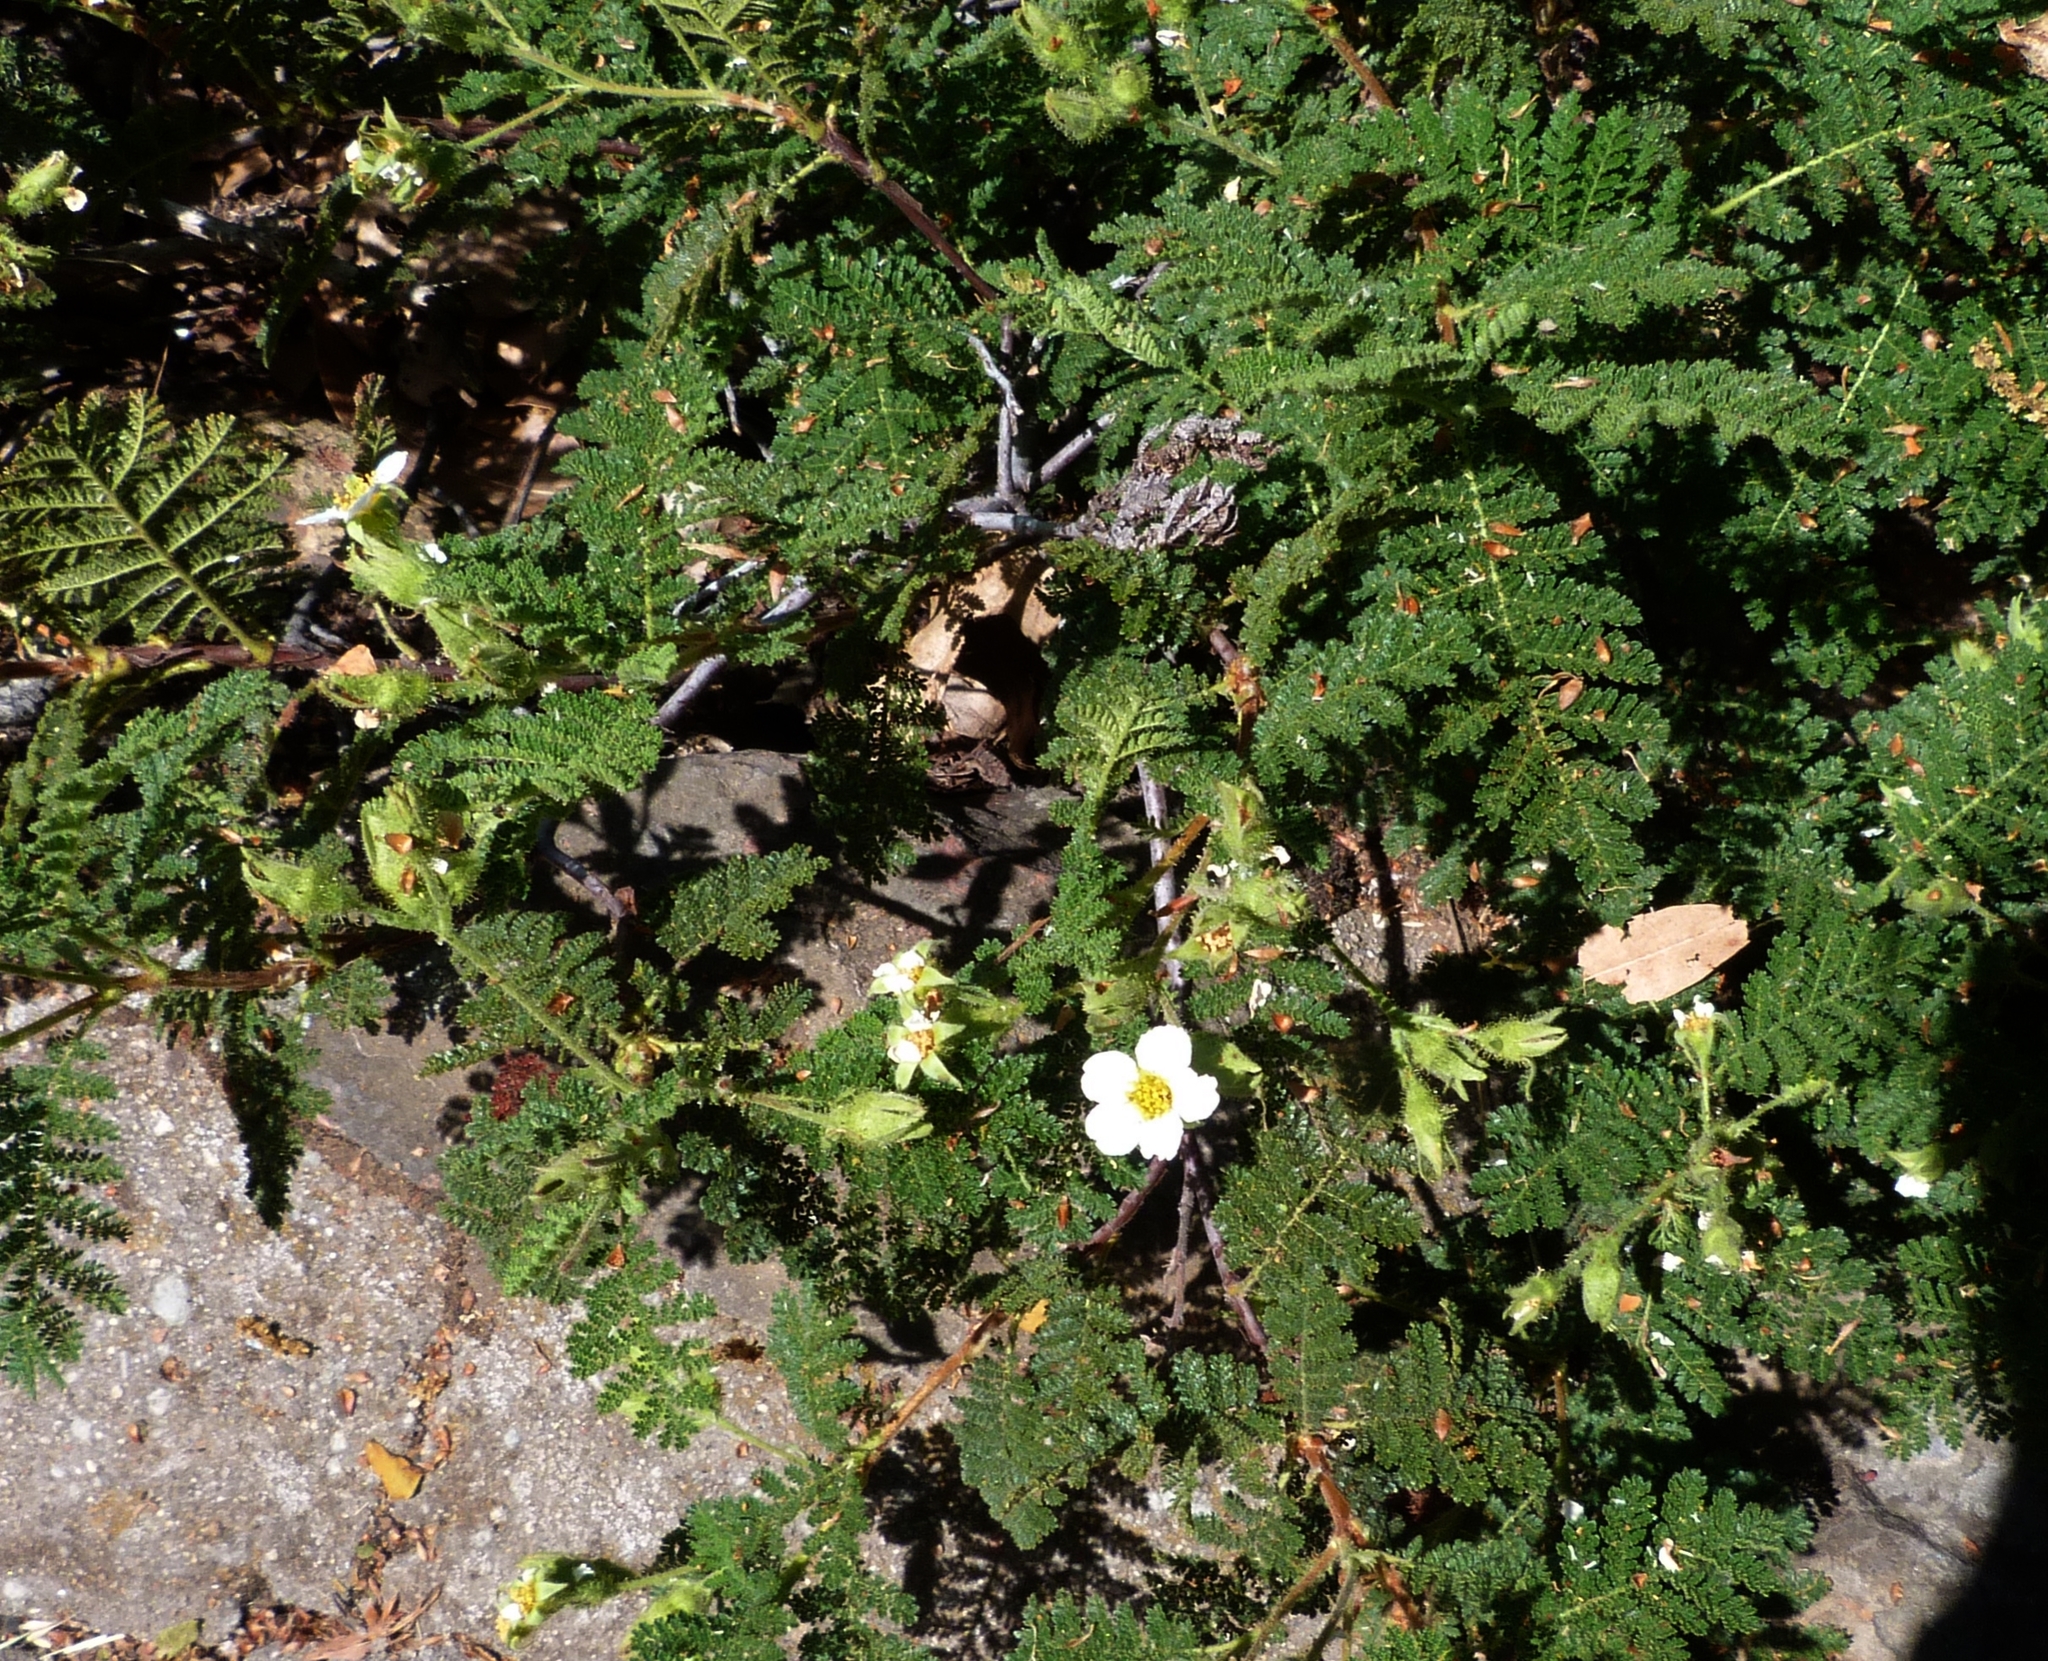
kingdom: Plantae
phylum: Tracheophyta
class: Magnoliopsida
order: Rosales
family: Rosaceae
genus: Chamaebatia
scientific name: Chamaebatia foliolosa
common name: Mountain misery
